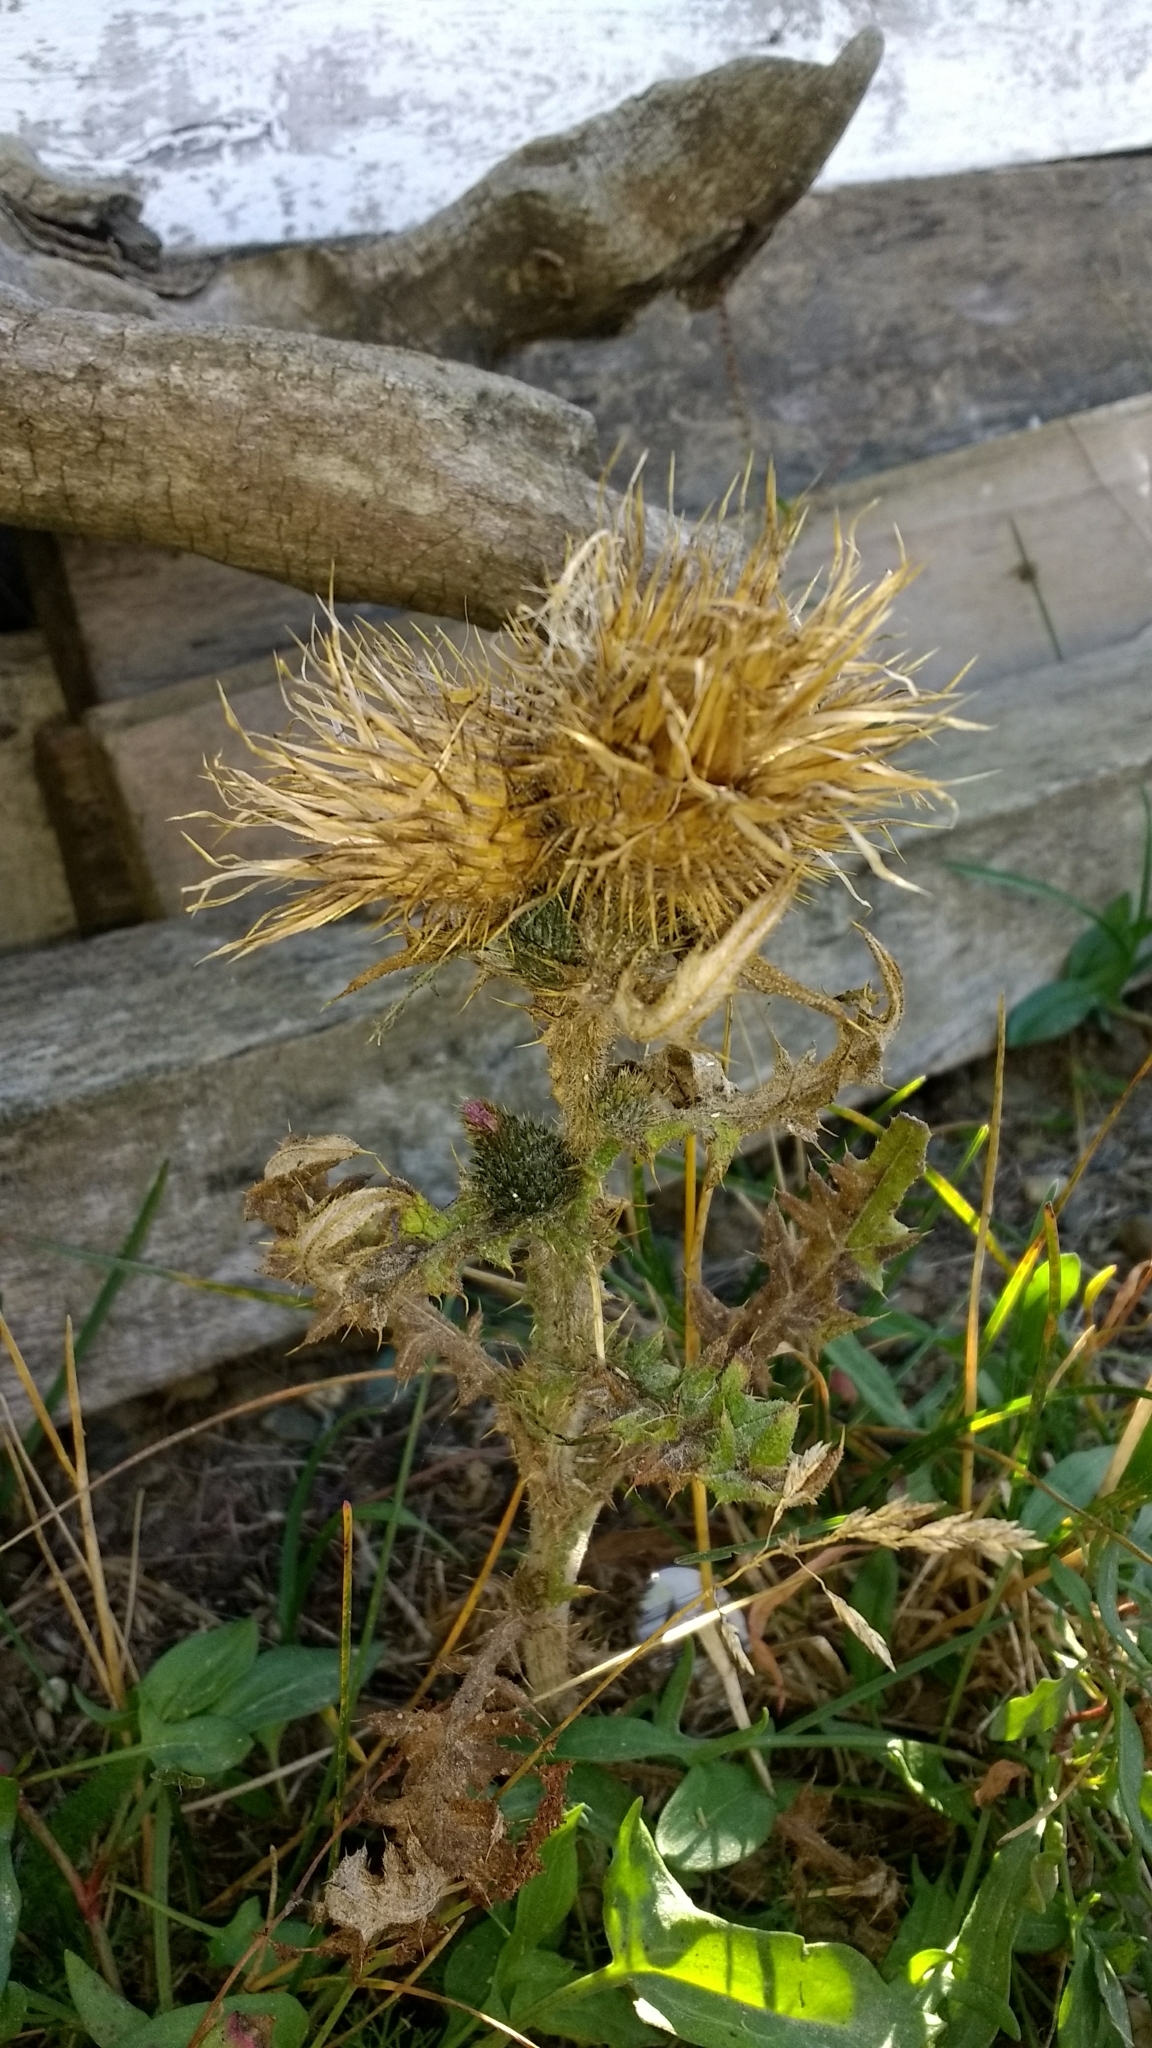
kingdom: Plantae
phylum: Tracheophyta
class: Magnoliopsida
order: Asterales
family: Asteraceae
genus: Cirsium
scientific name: Cirsium vulgare
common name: Bull thistle
